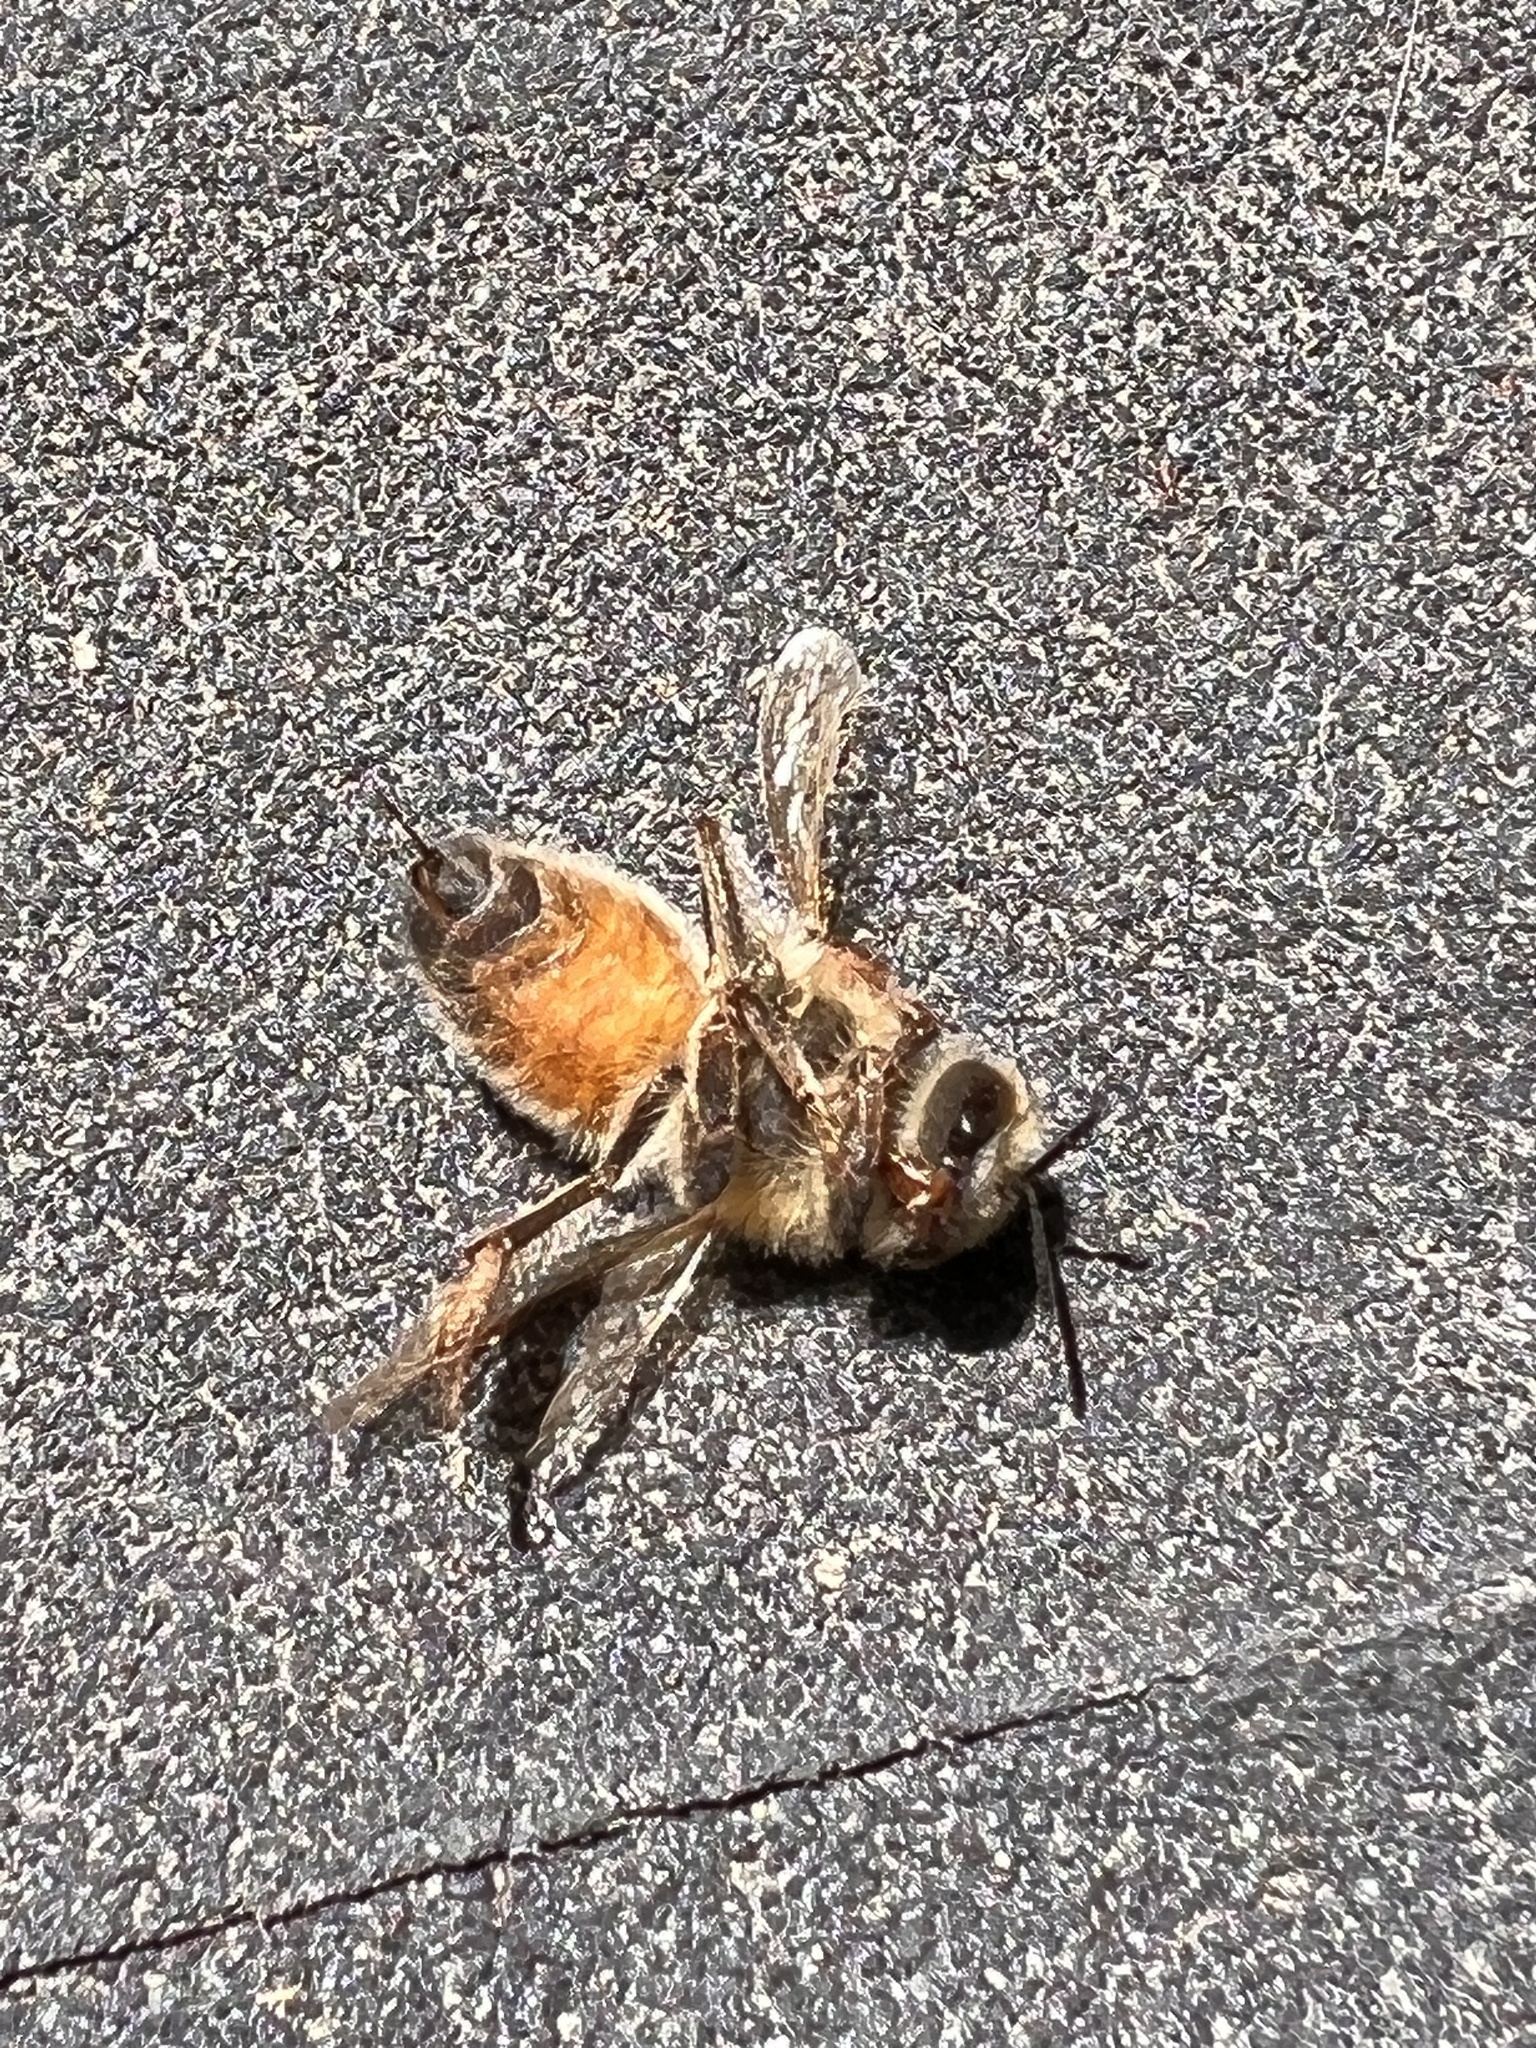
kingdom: Animalia
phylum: Arthropoda
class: Insecta
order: Hymenoptera
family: Apidae
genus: Apis
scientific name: Apis mellifera
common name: Honey bee
